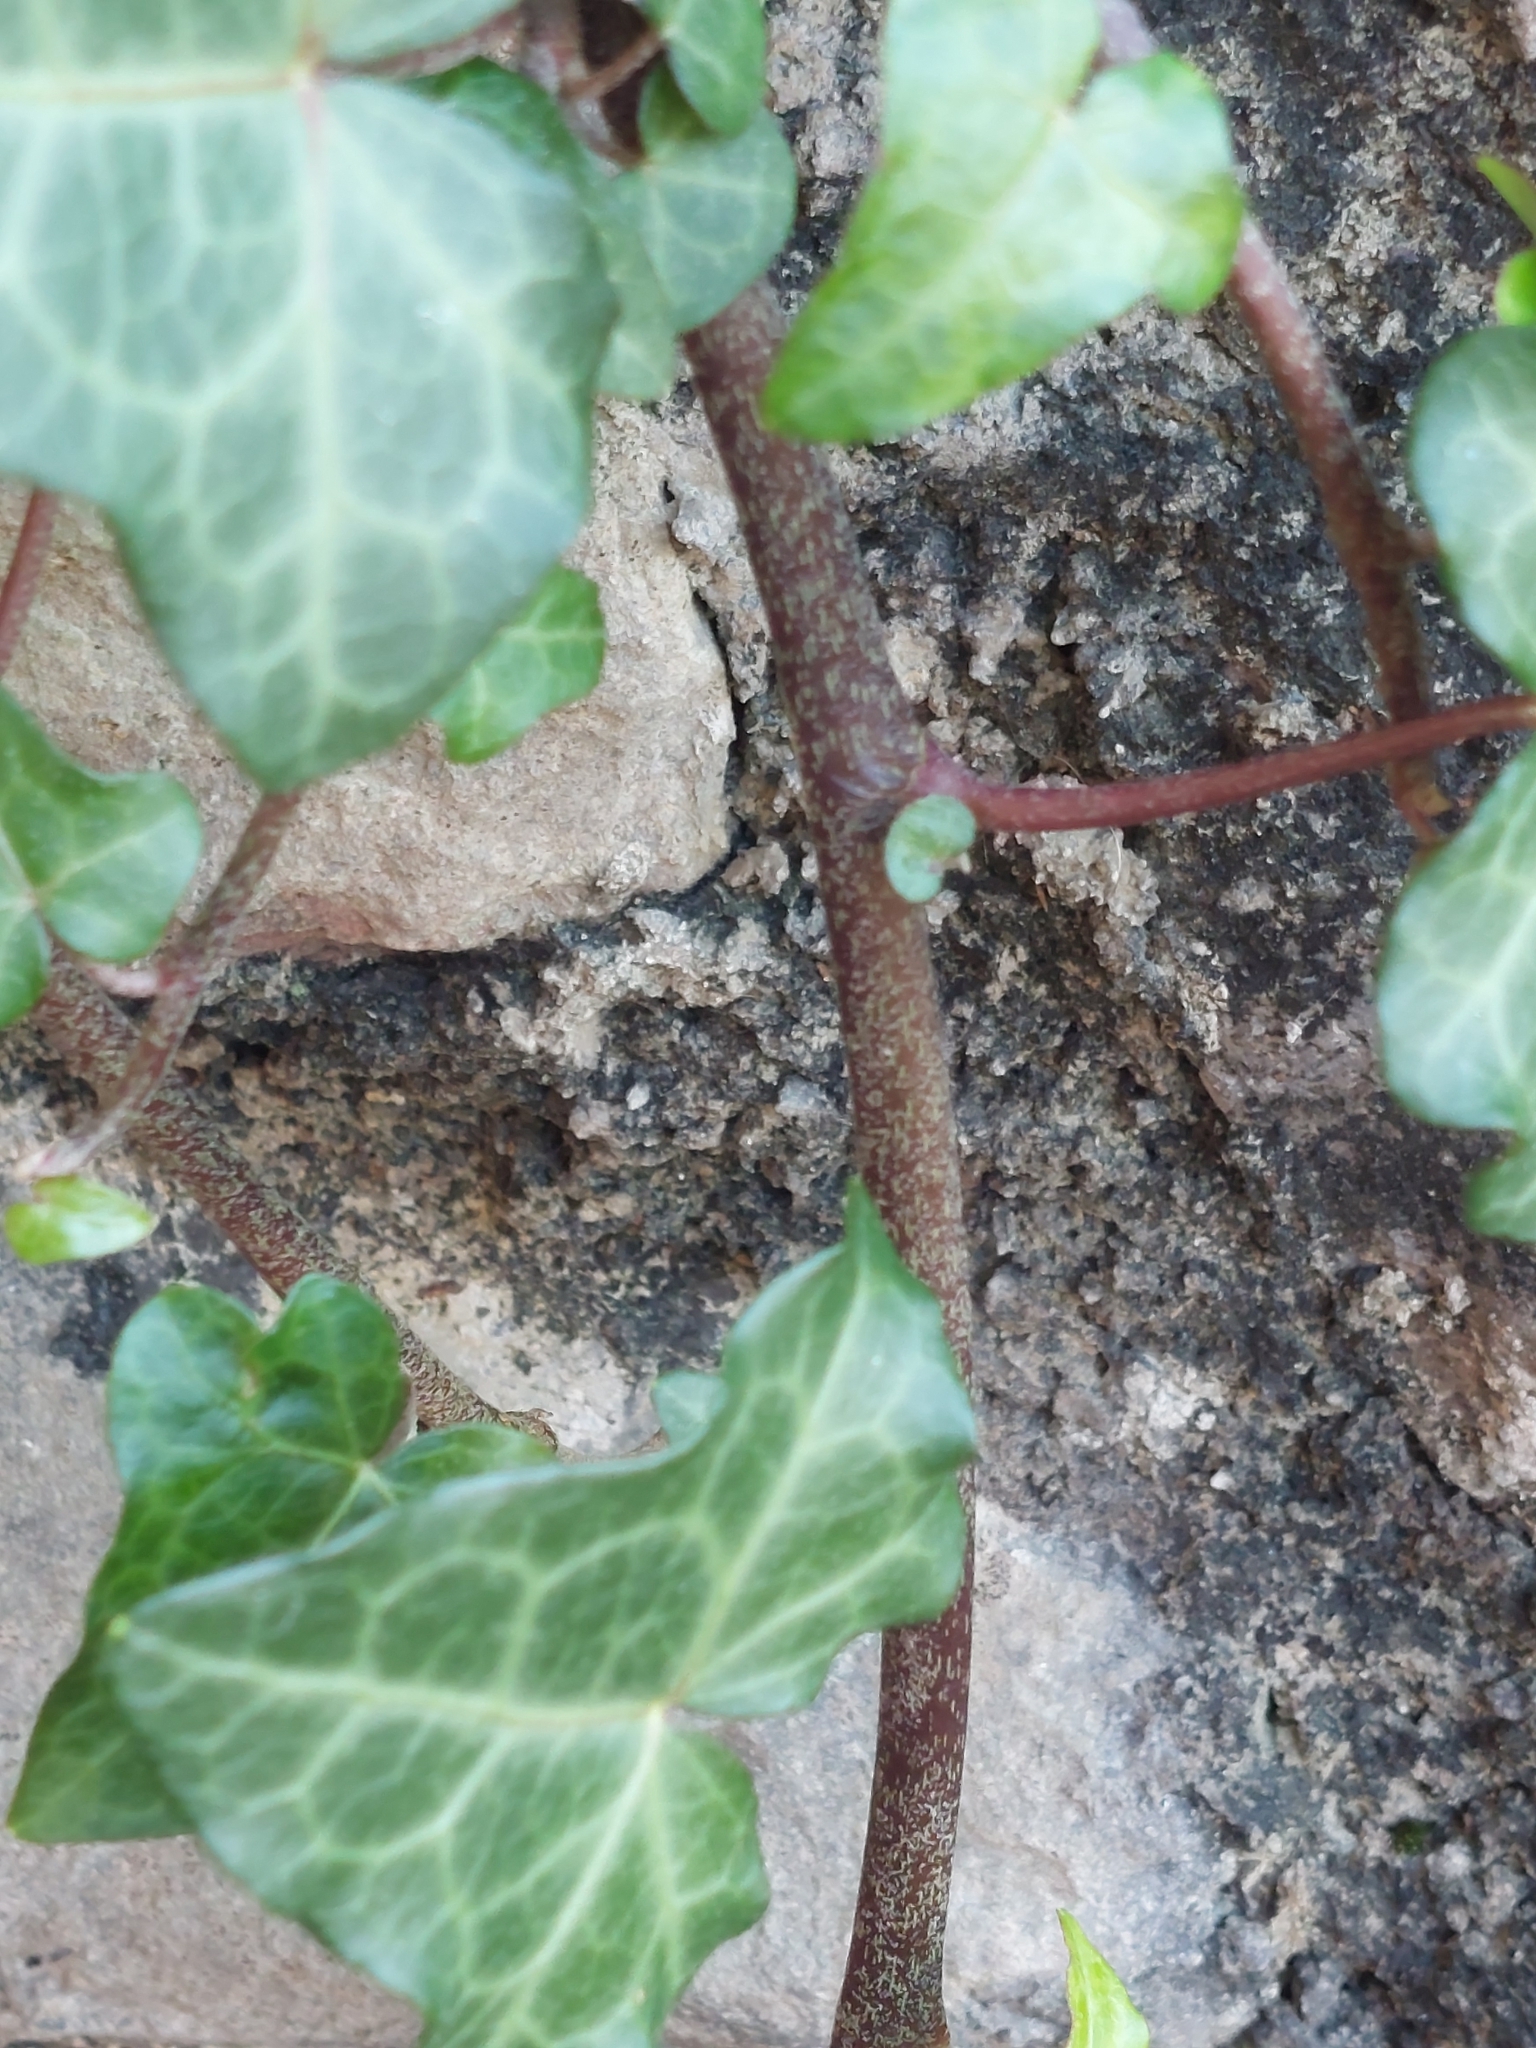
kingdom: Plantae
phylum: Tracheophyta
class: Magnoliopsida
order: Apiales
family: Araliaceae
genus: Hedera
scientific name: Hedera helix
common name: Ivy
